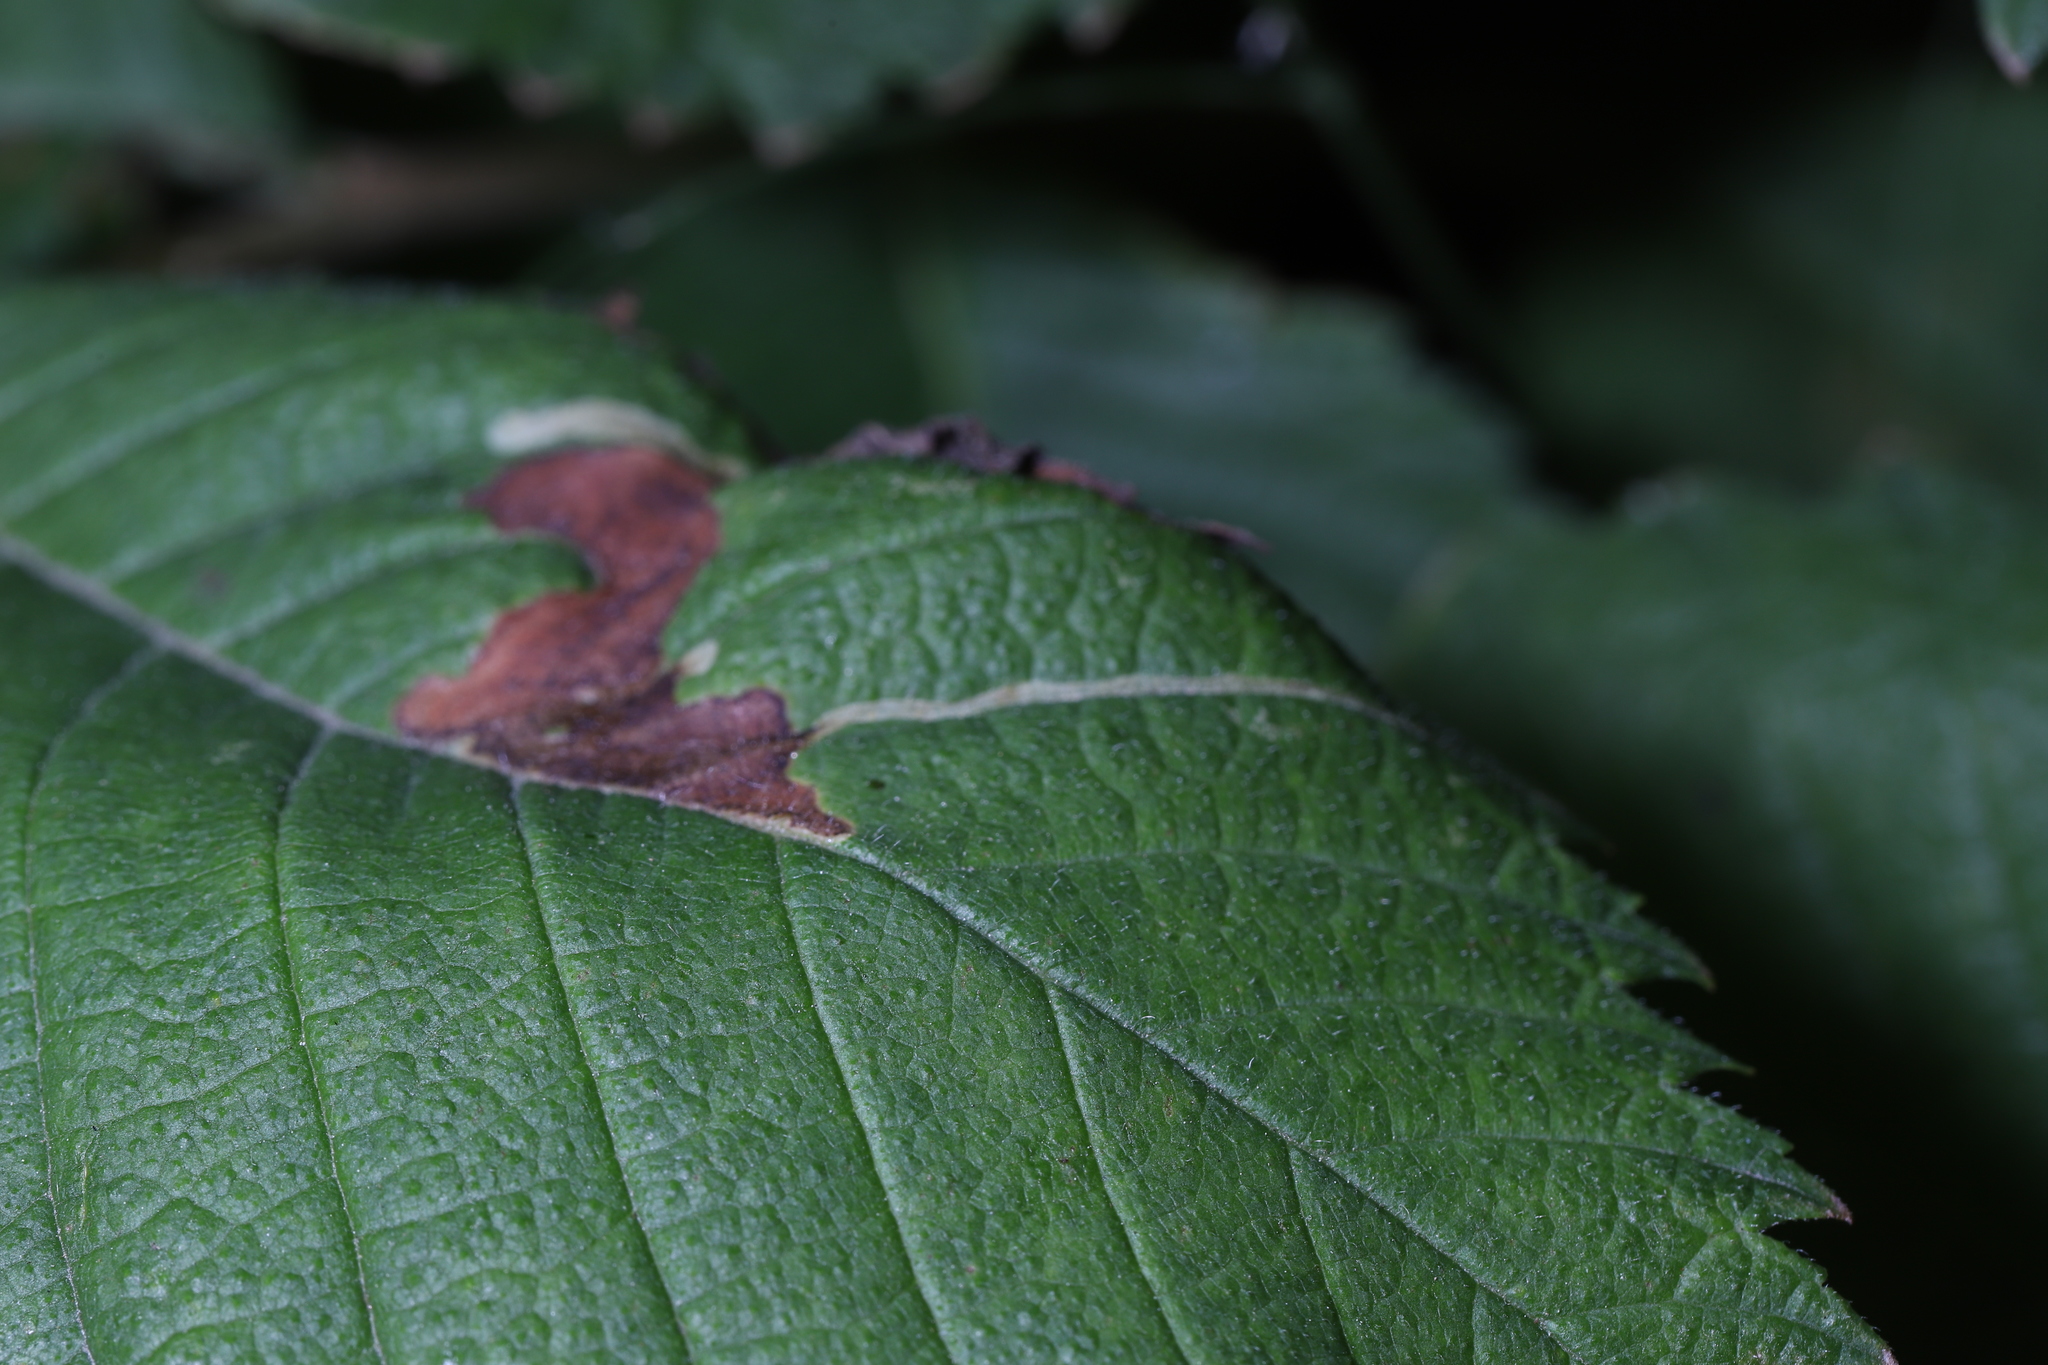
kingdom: Animalia
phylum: Arthropoda
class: Insecta
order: Diptera
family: Agromyzidae
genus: Agromyza
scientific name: Agromyza aristata
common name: Elm agromyzid leafminer
